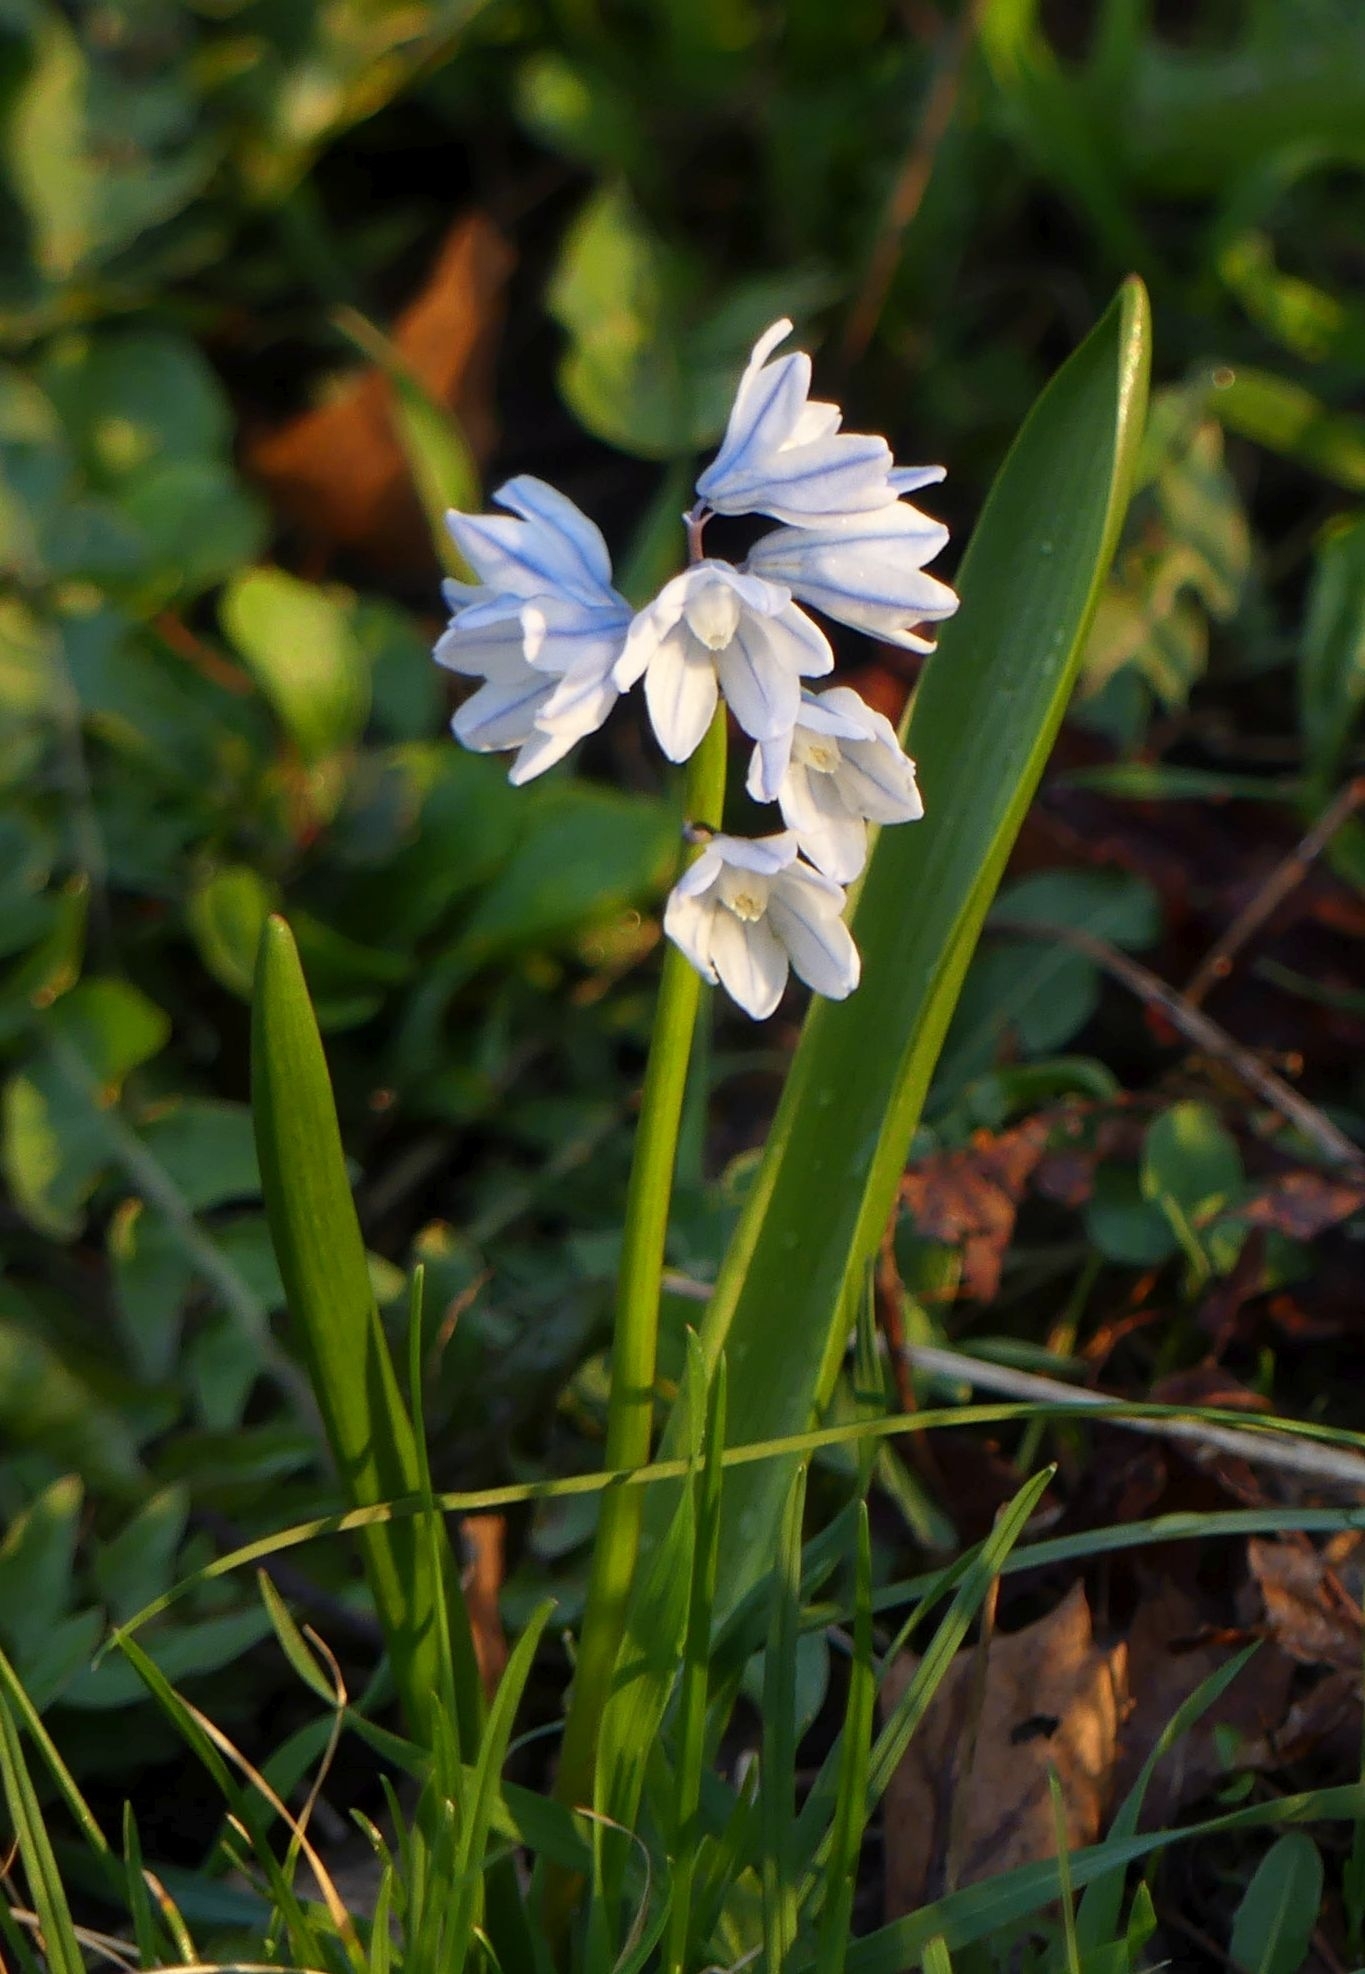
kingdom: Plantae
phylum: Tracheophyta
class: Liliopsida
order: Asparagales
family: Asparagaceae
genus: Puschkinia
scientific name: Puschkinia scilloides
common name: Striped squill
